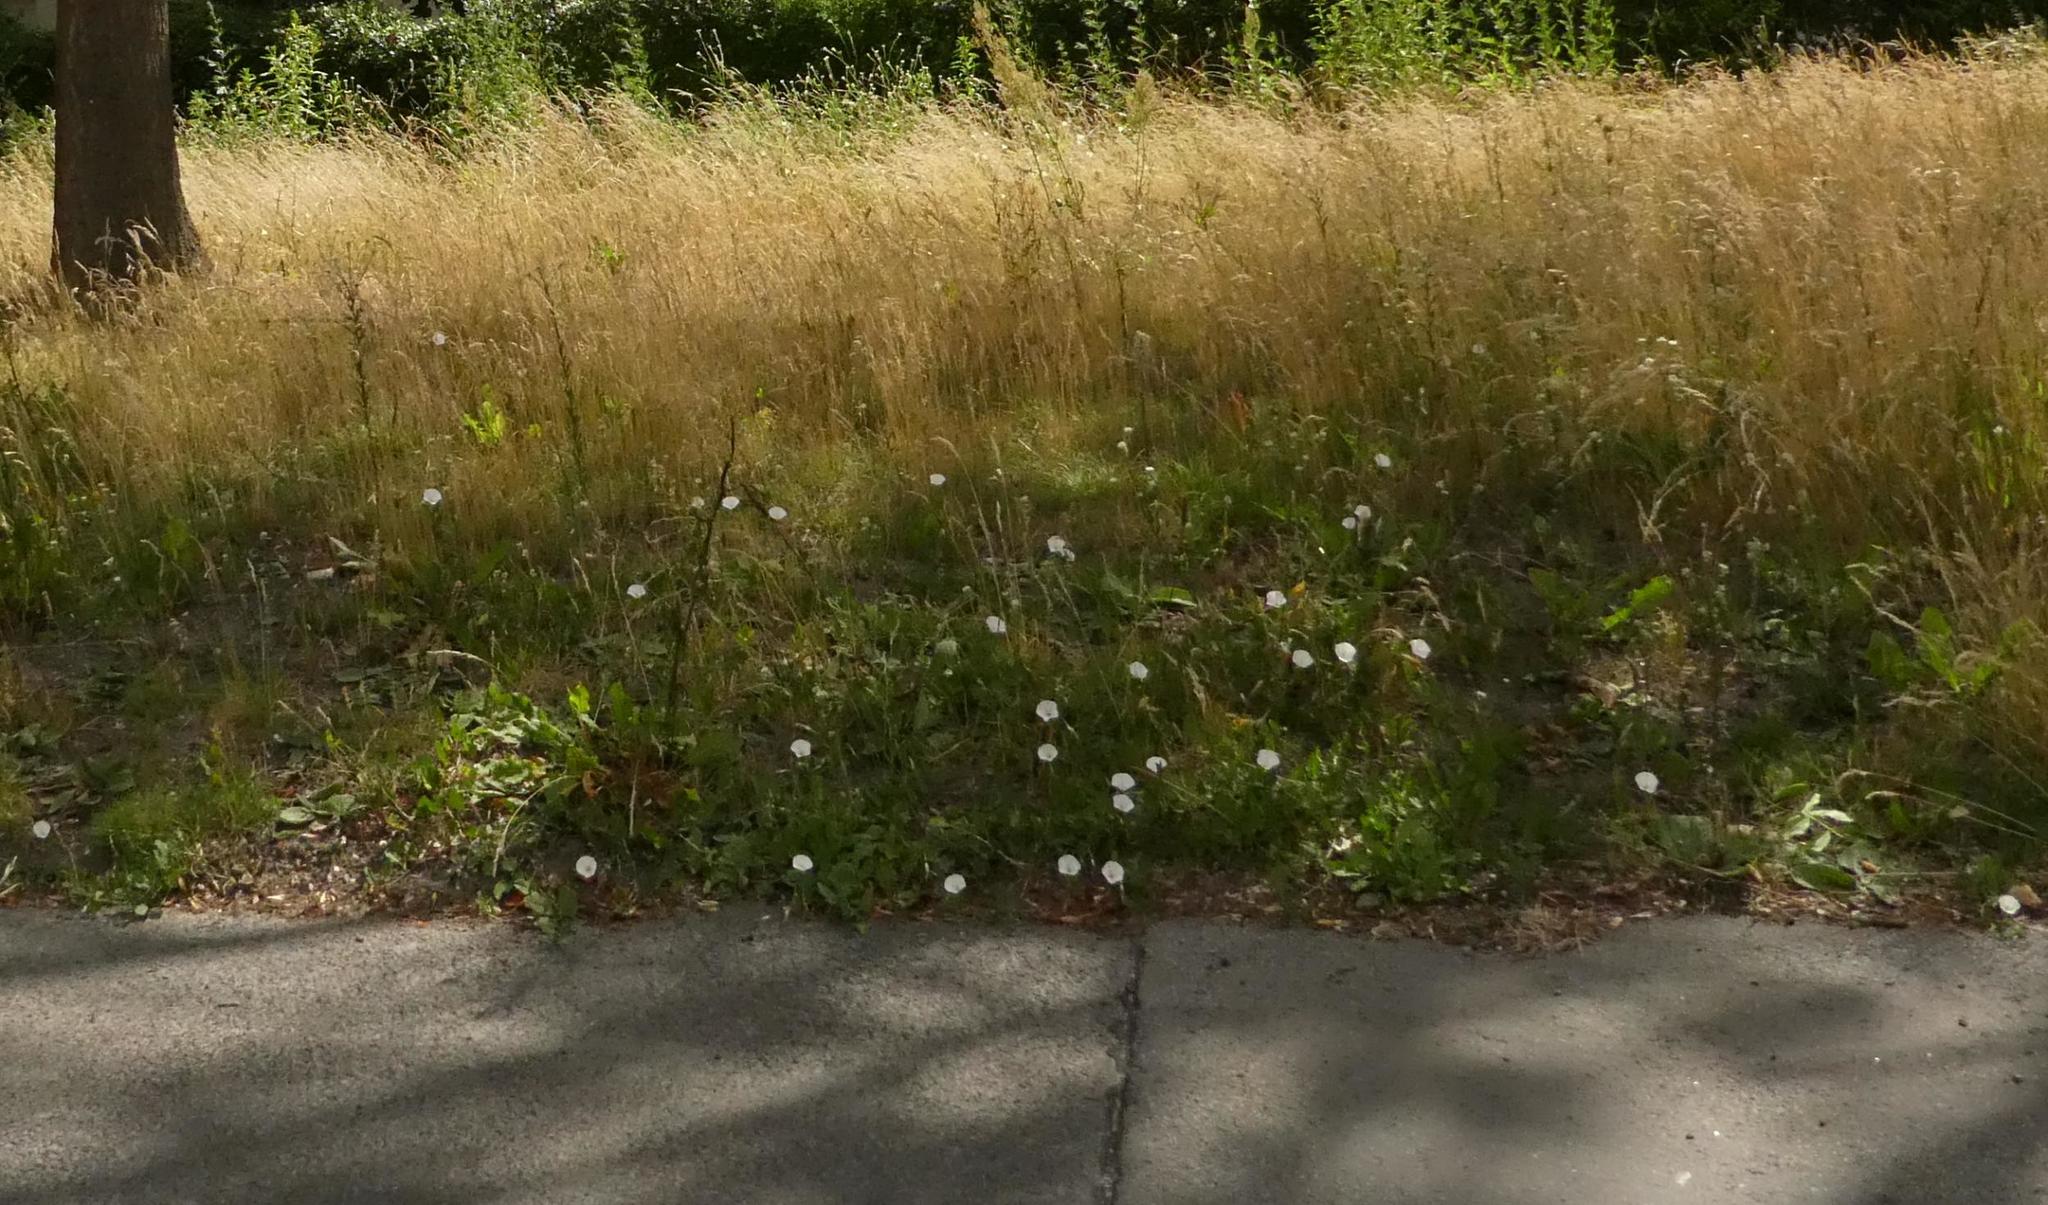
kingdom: Plantae
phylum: Tracheophyta
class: Magnoliopsida
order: Solanales
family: Convolvulaceae
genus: Convolvulus
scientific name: Convolvulus arvensis
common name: Field bindweed
